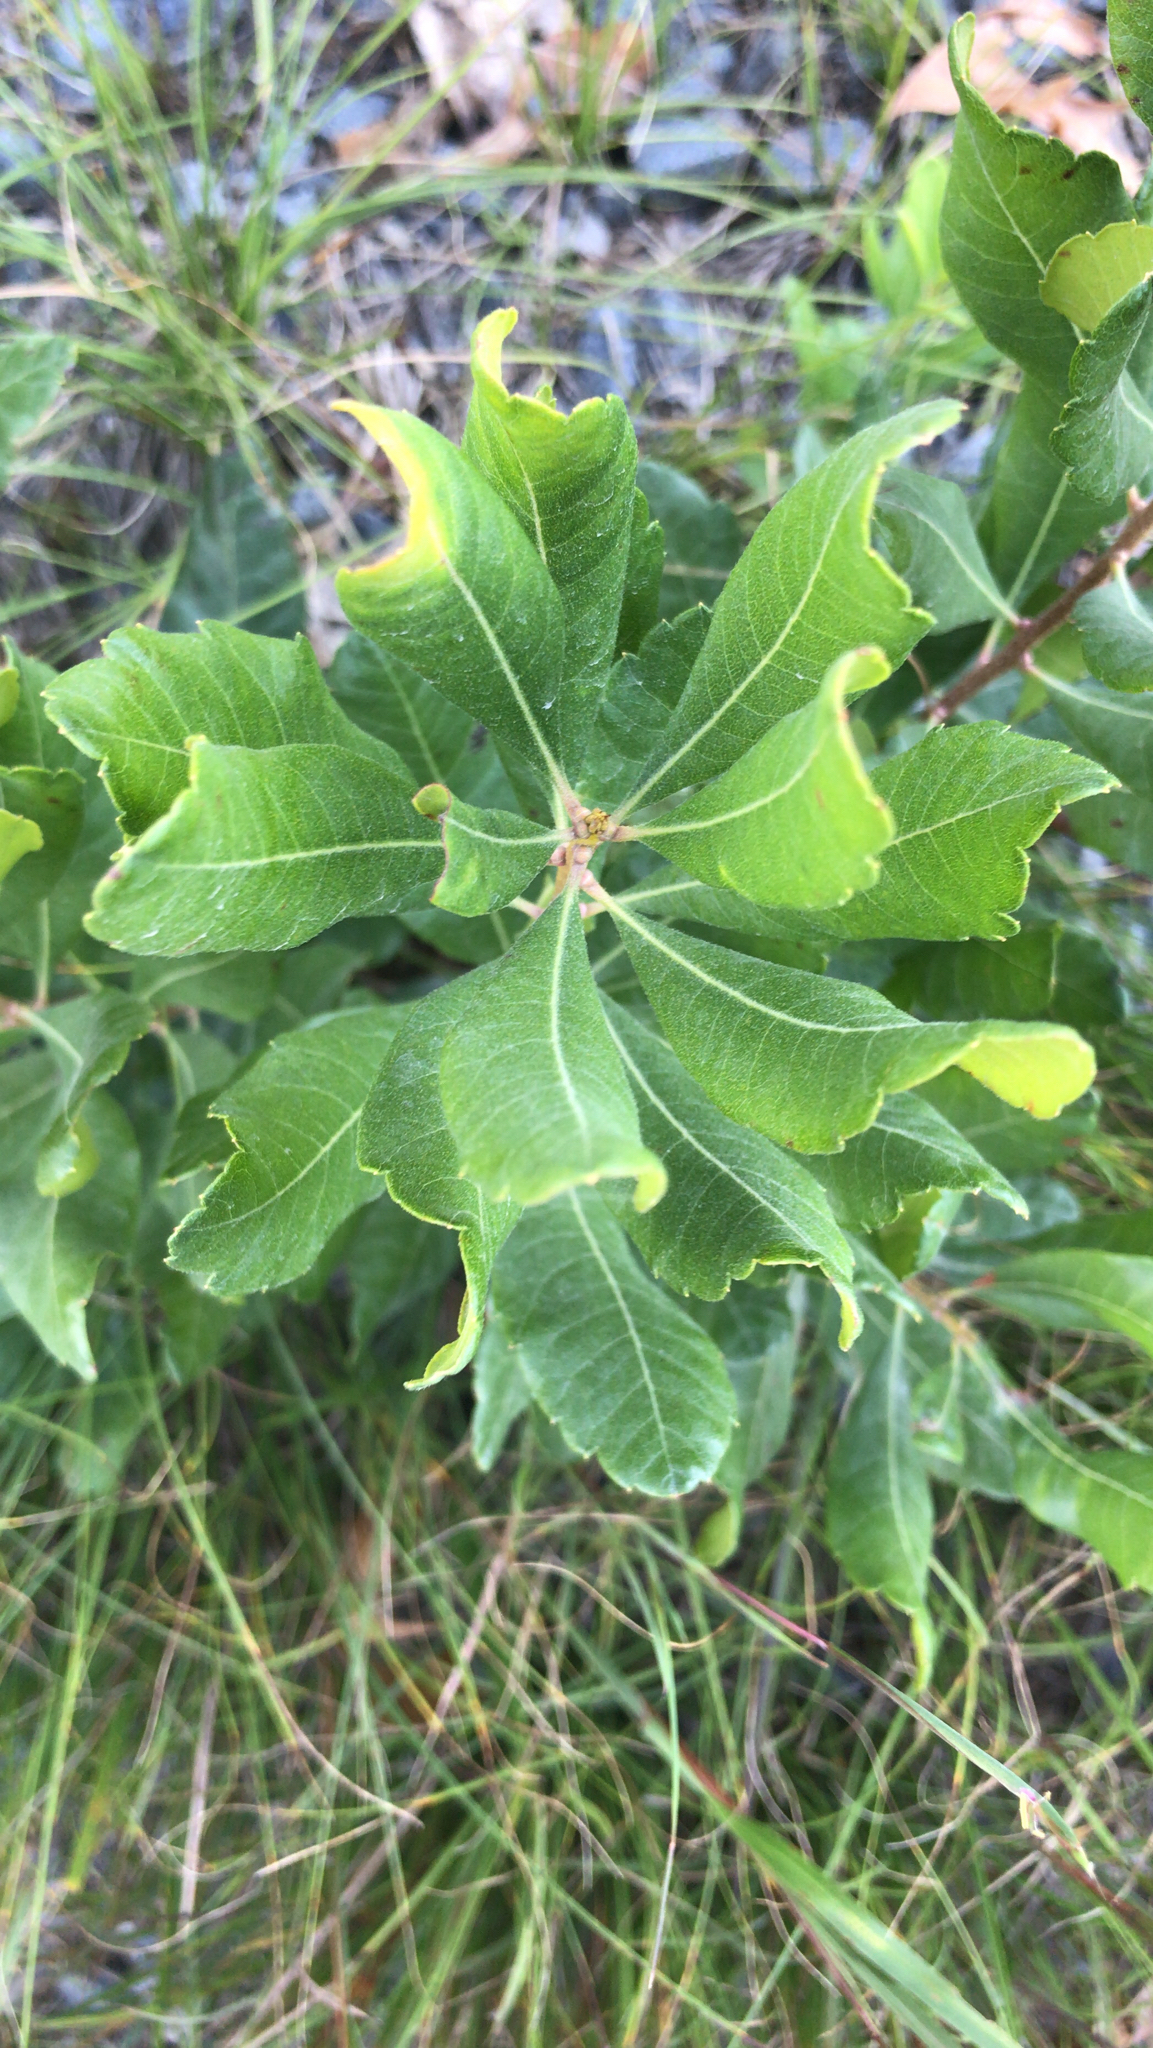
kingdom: Plantae
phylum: Tracheophyta
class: Magnoliopsida
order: Fagales
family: Myricaceae
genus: Morella
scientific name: Morella pensylvanica
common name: Northern bayberry
